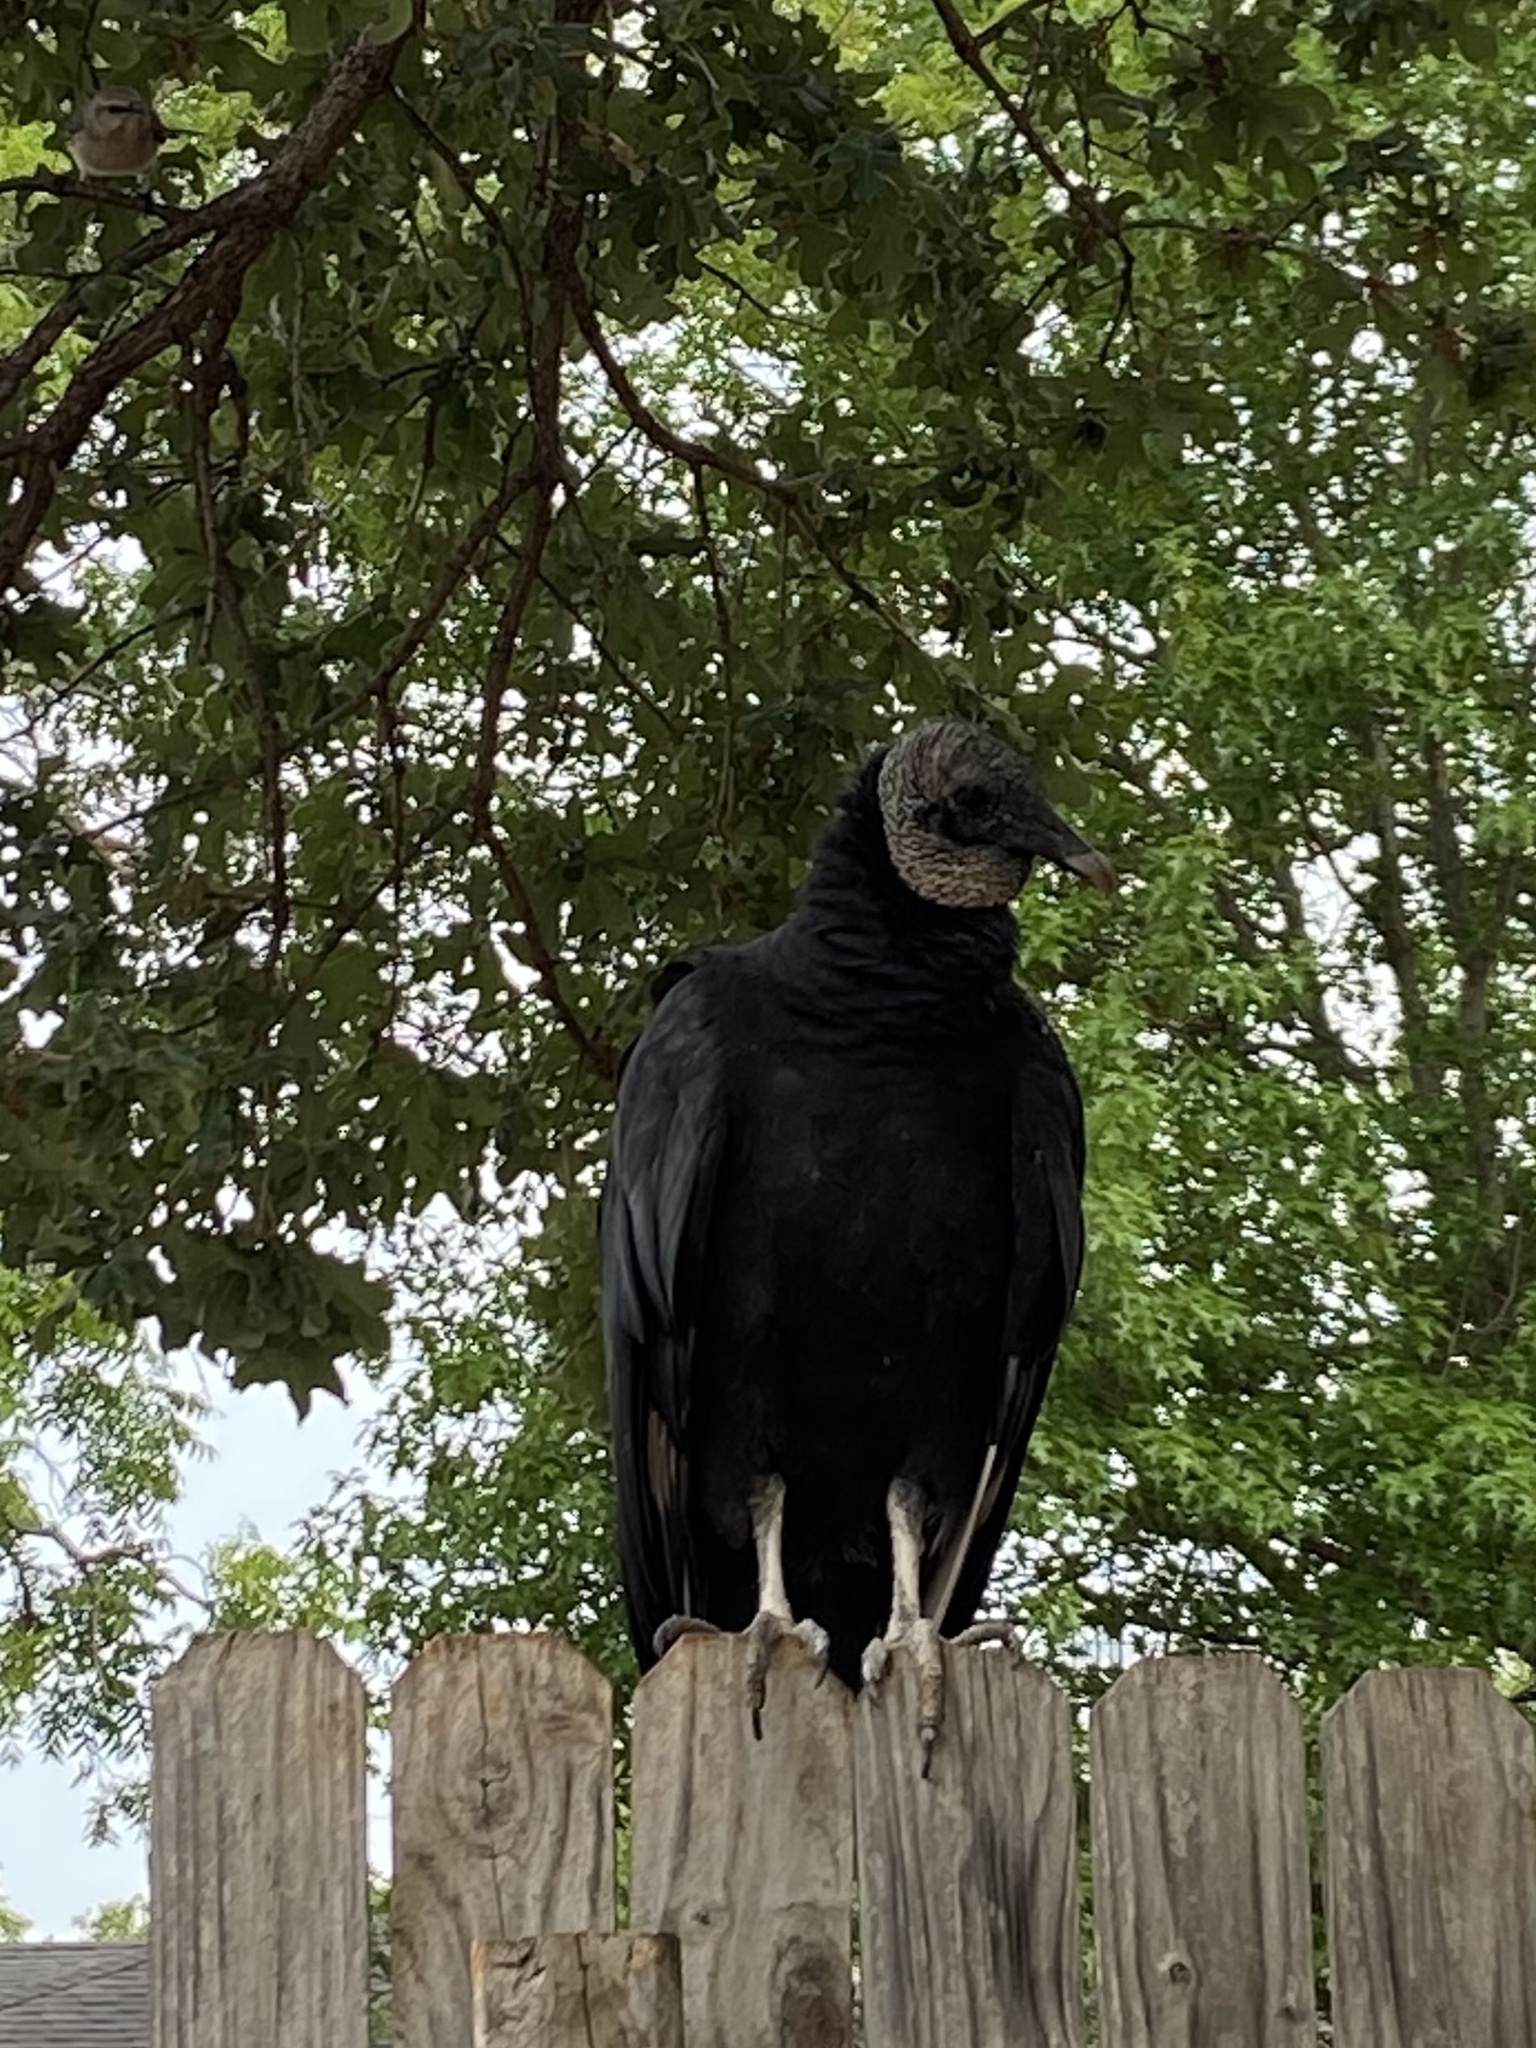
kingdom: Animalia
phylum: Chordata
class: Aves
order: Accipitriformes
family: Cathartidae
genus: Coragyps
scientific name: Coragyps atratus
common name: Black vulture
